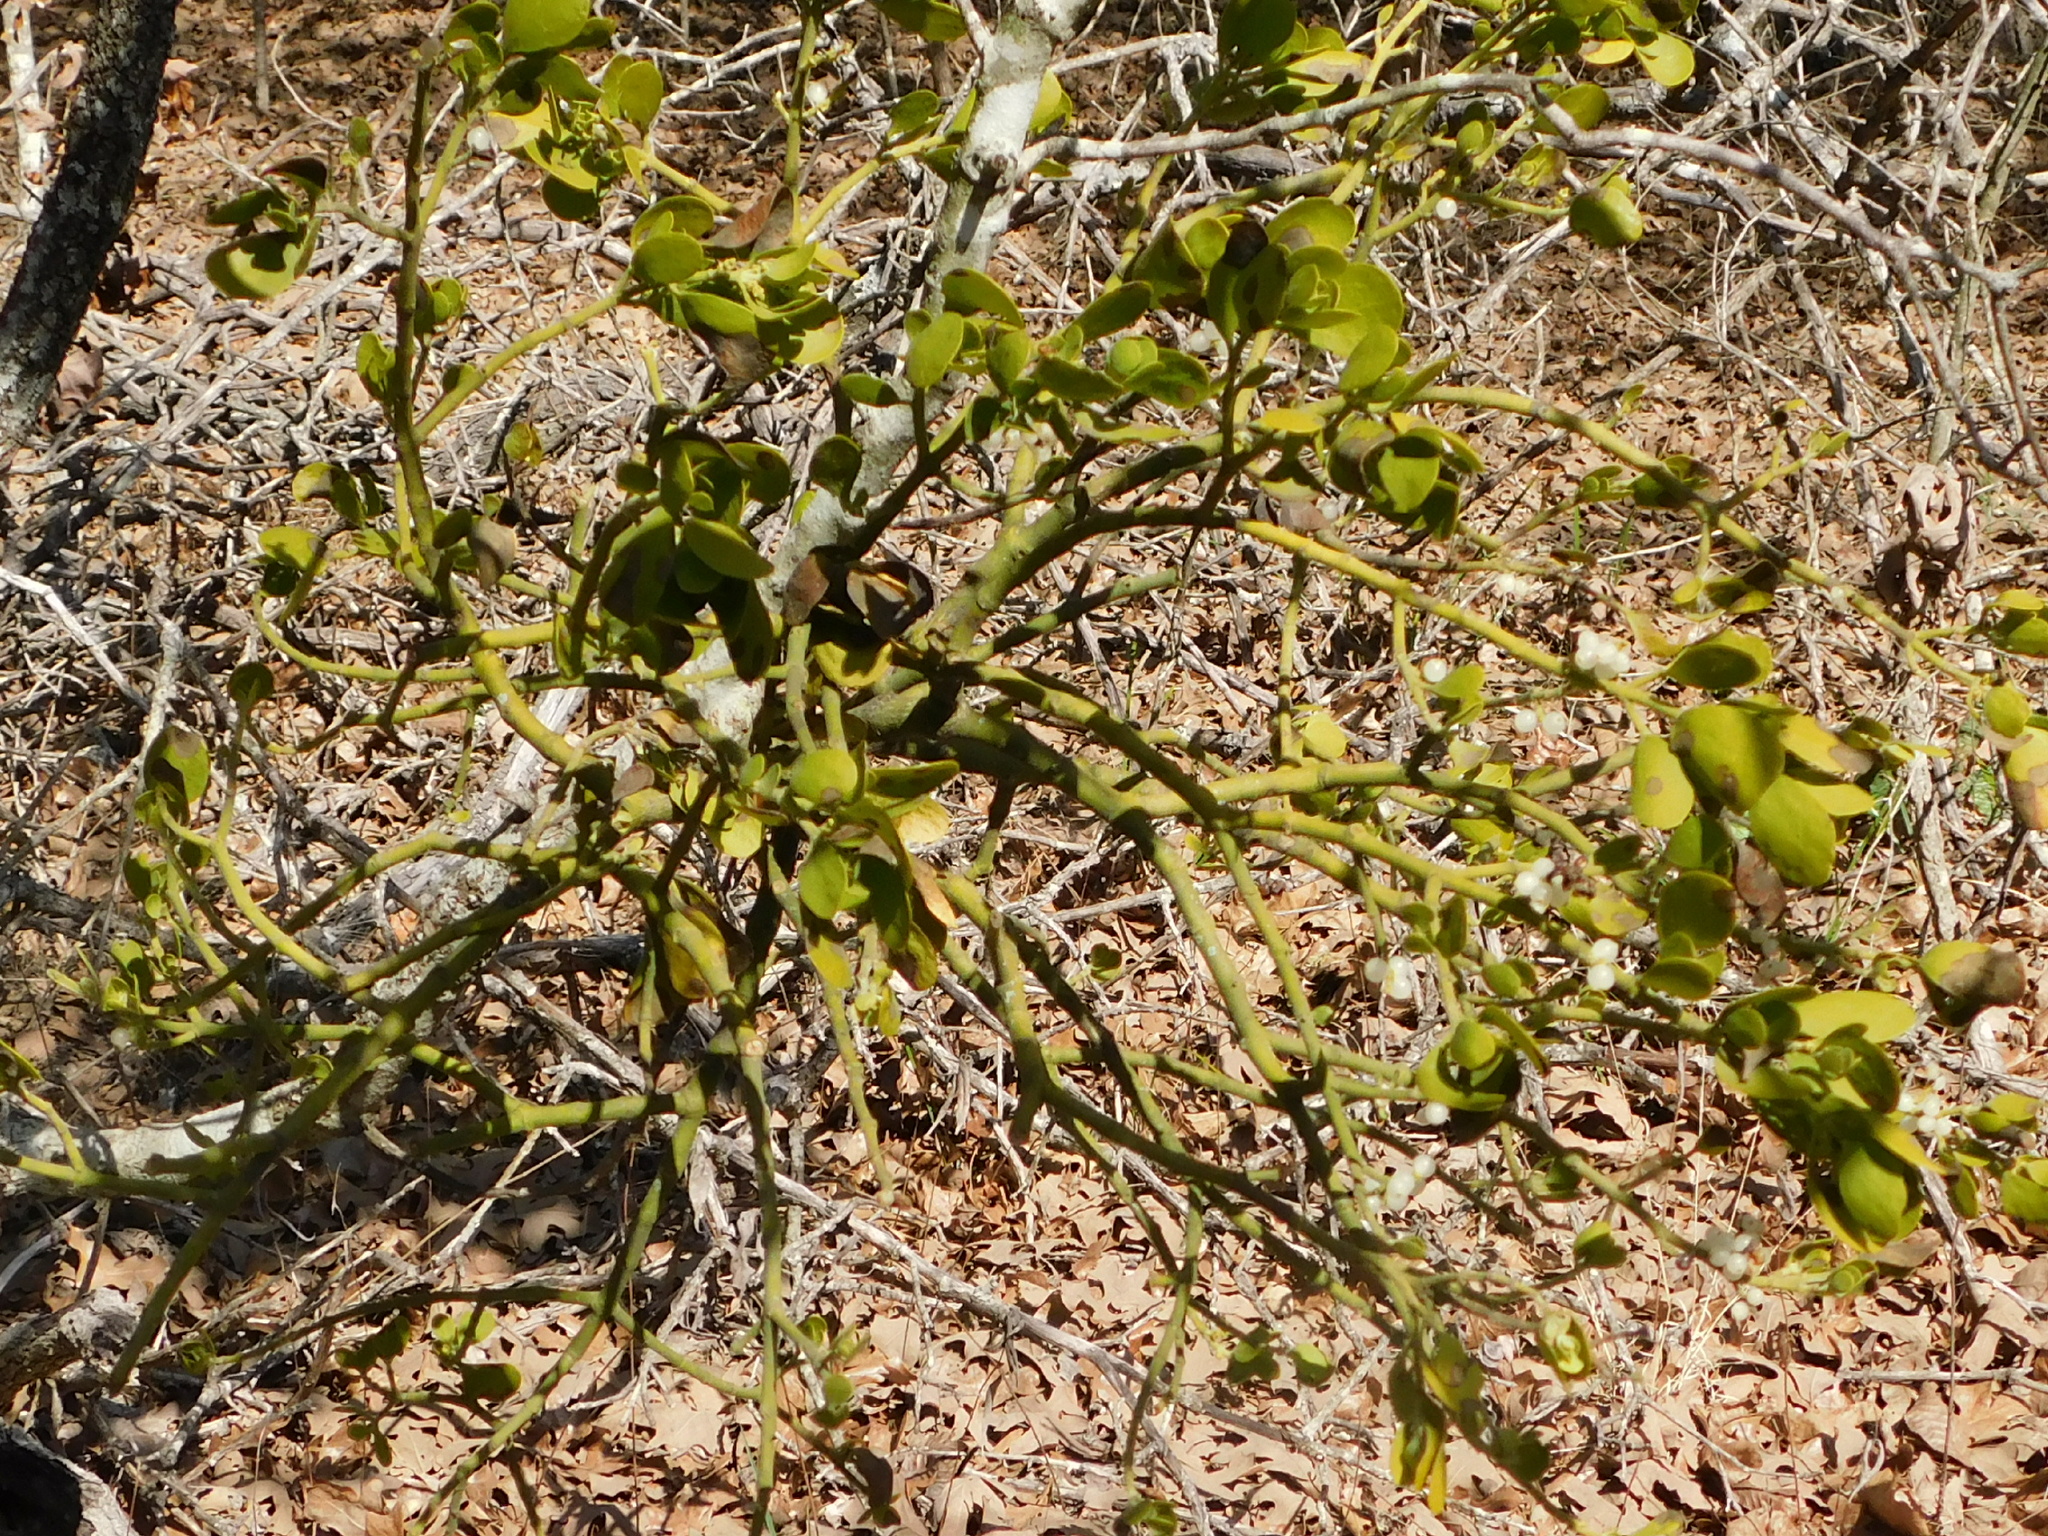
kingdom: Plantae
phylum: Tracheophyta
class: Magnoliopsida
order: Santalales
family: Viscaceae
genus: Phoradendron
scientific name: Phoradendron leucarpum
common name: Pacific mistletoe
